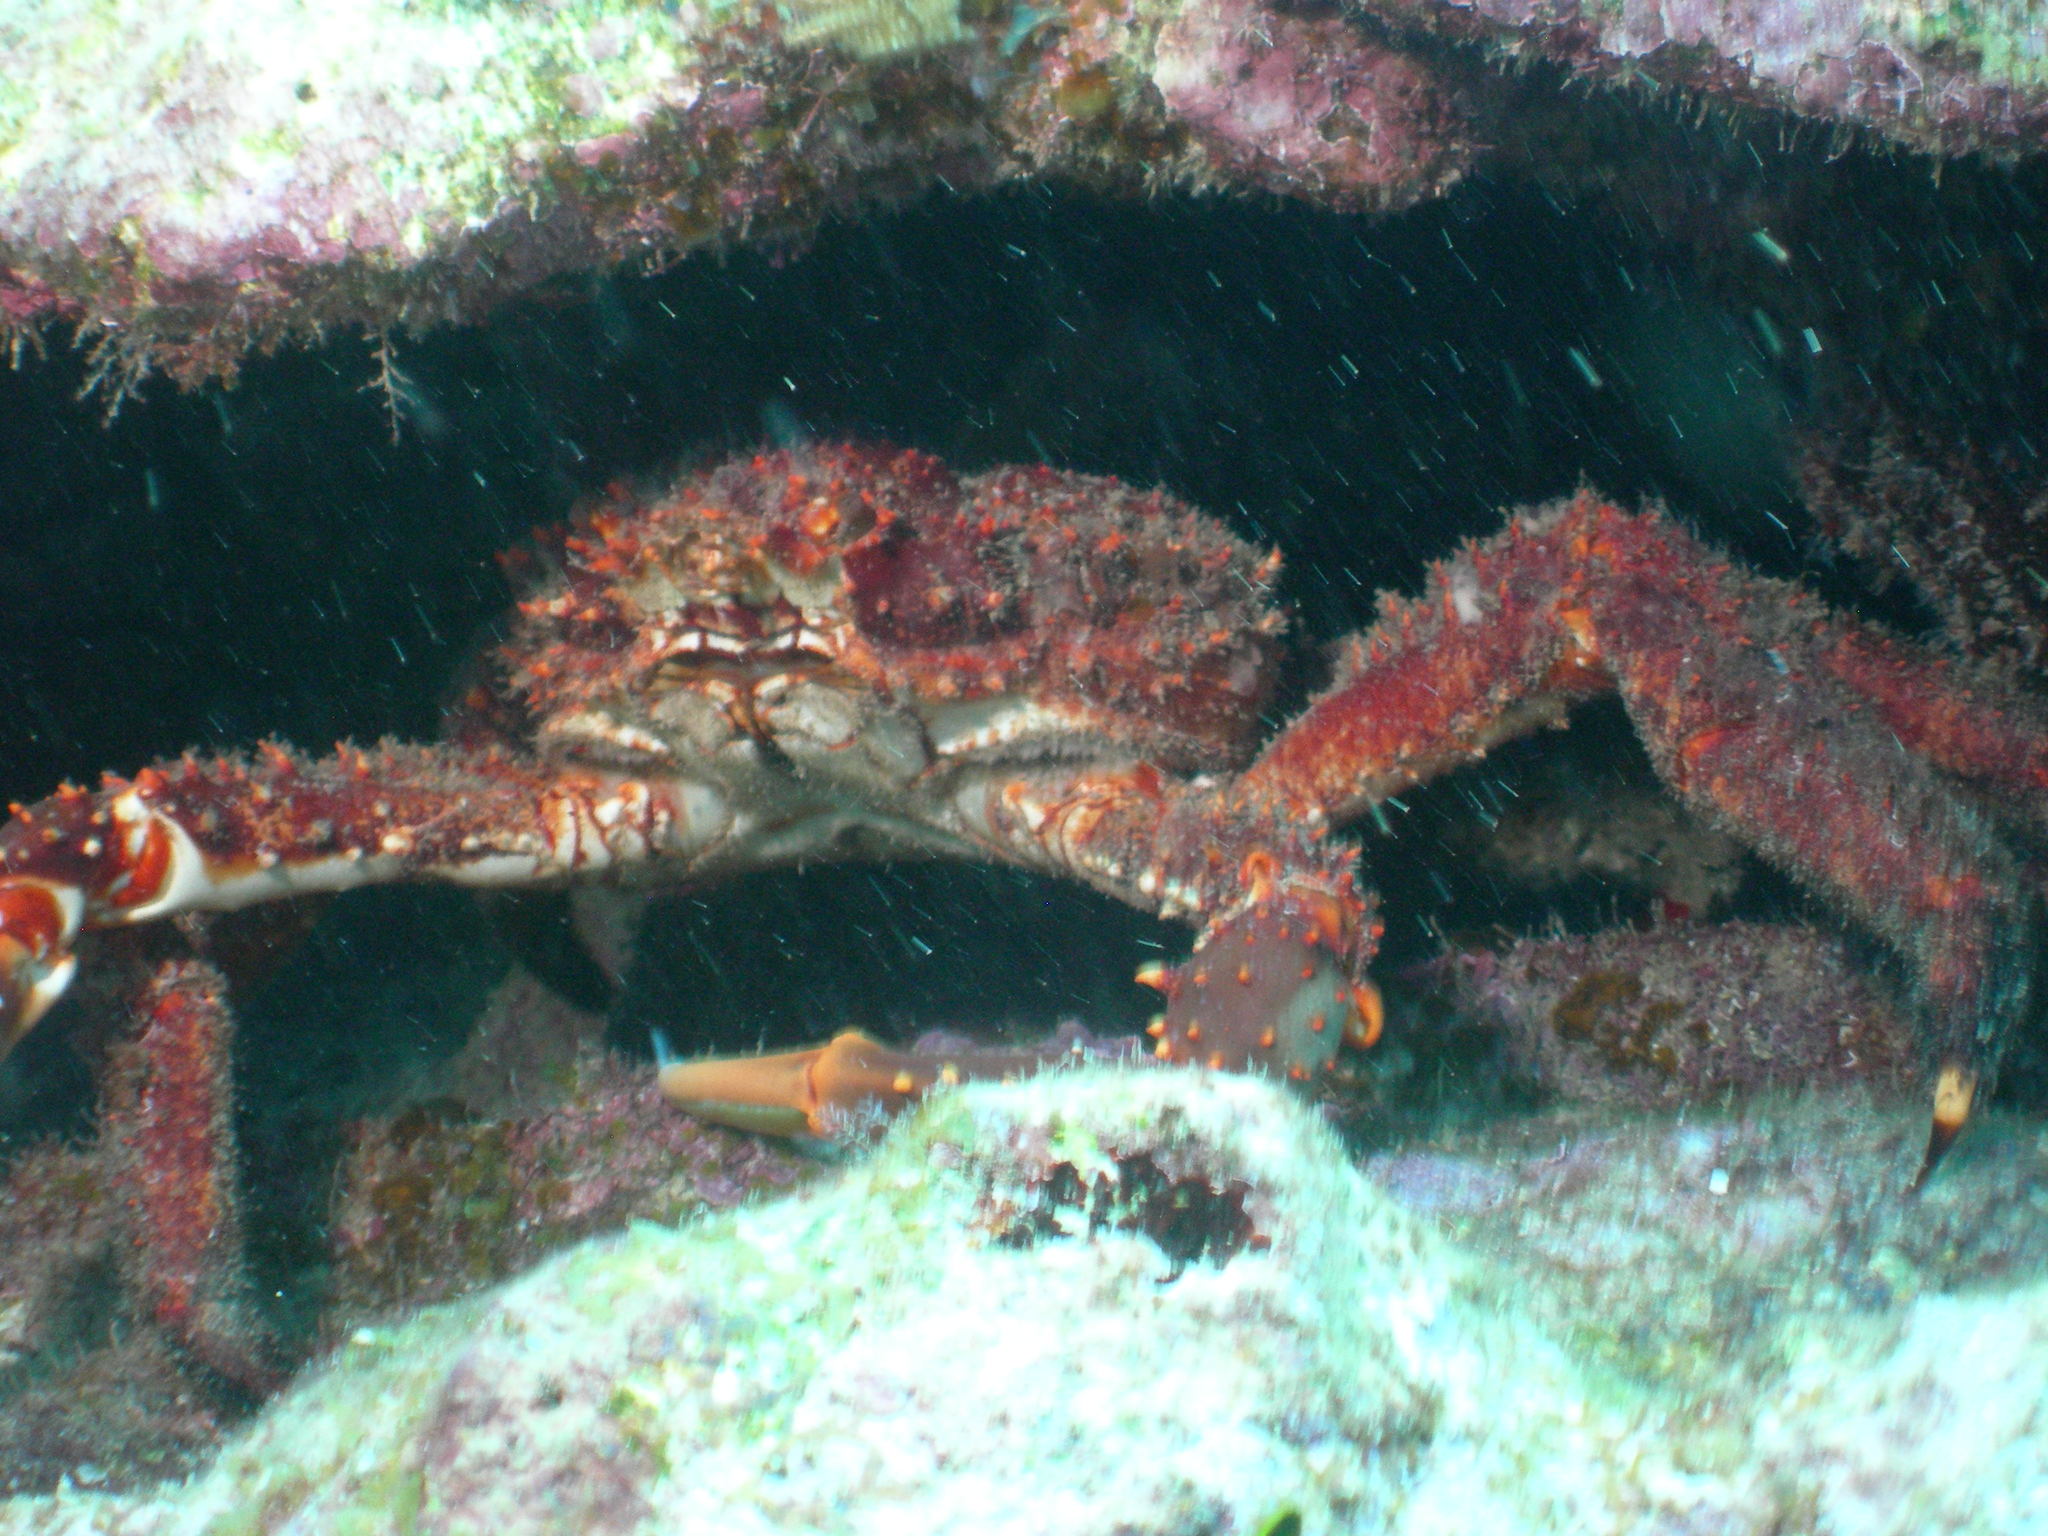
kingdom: Animalia
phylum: Arthropoda
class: Malacostraca
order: Decapoda
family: Mithracidae
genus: Maguimithrax
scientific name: Maguimithrax spinosissimus
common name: Spiny spider crab
